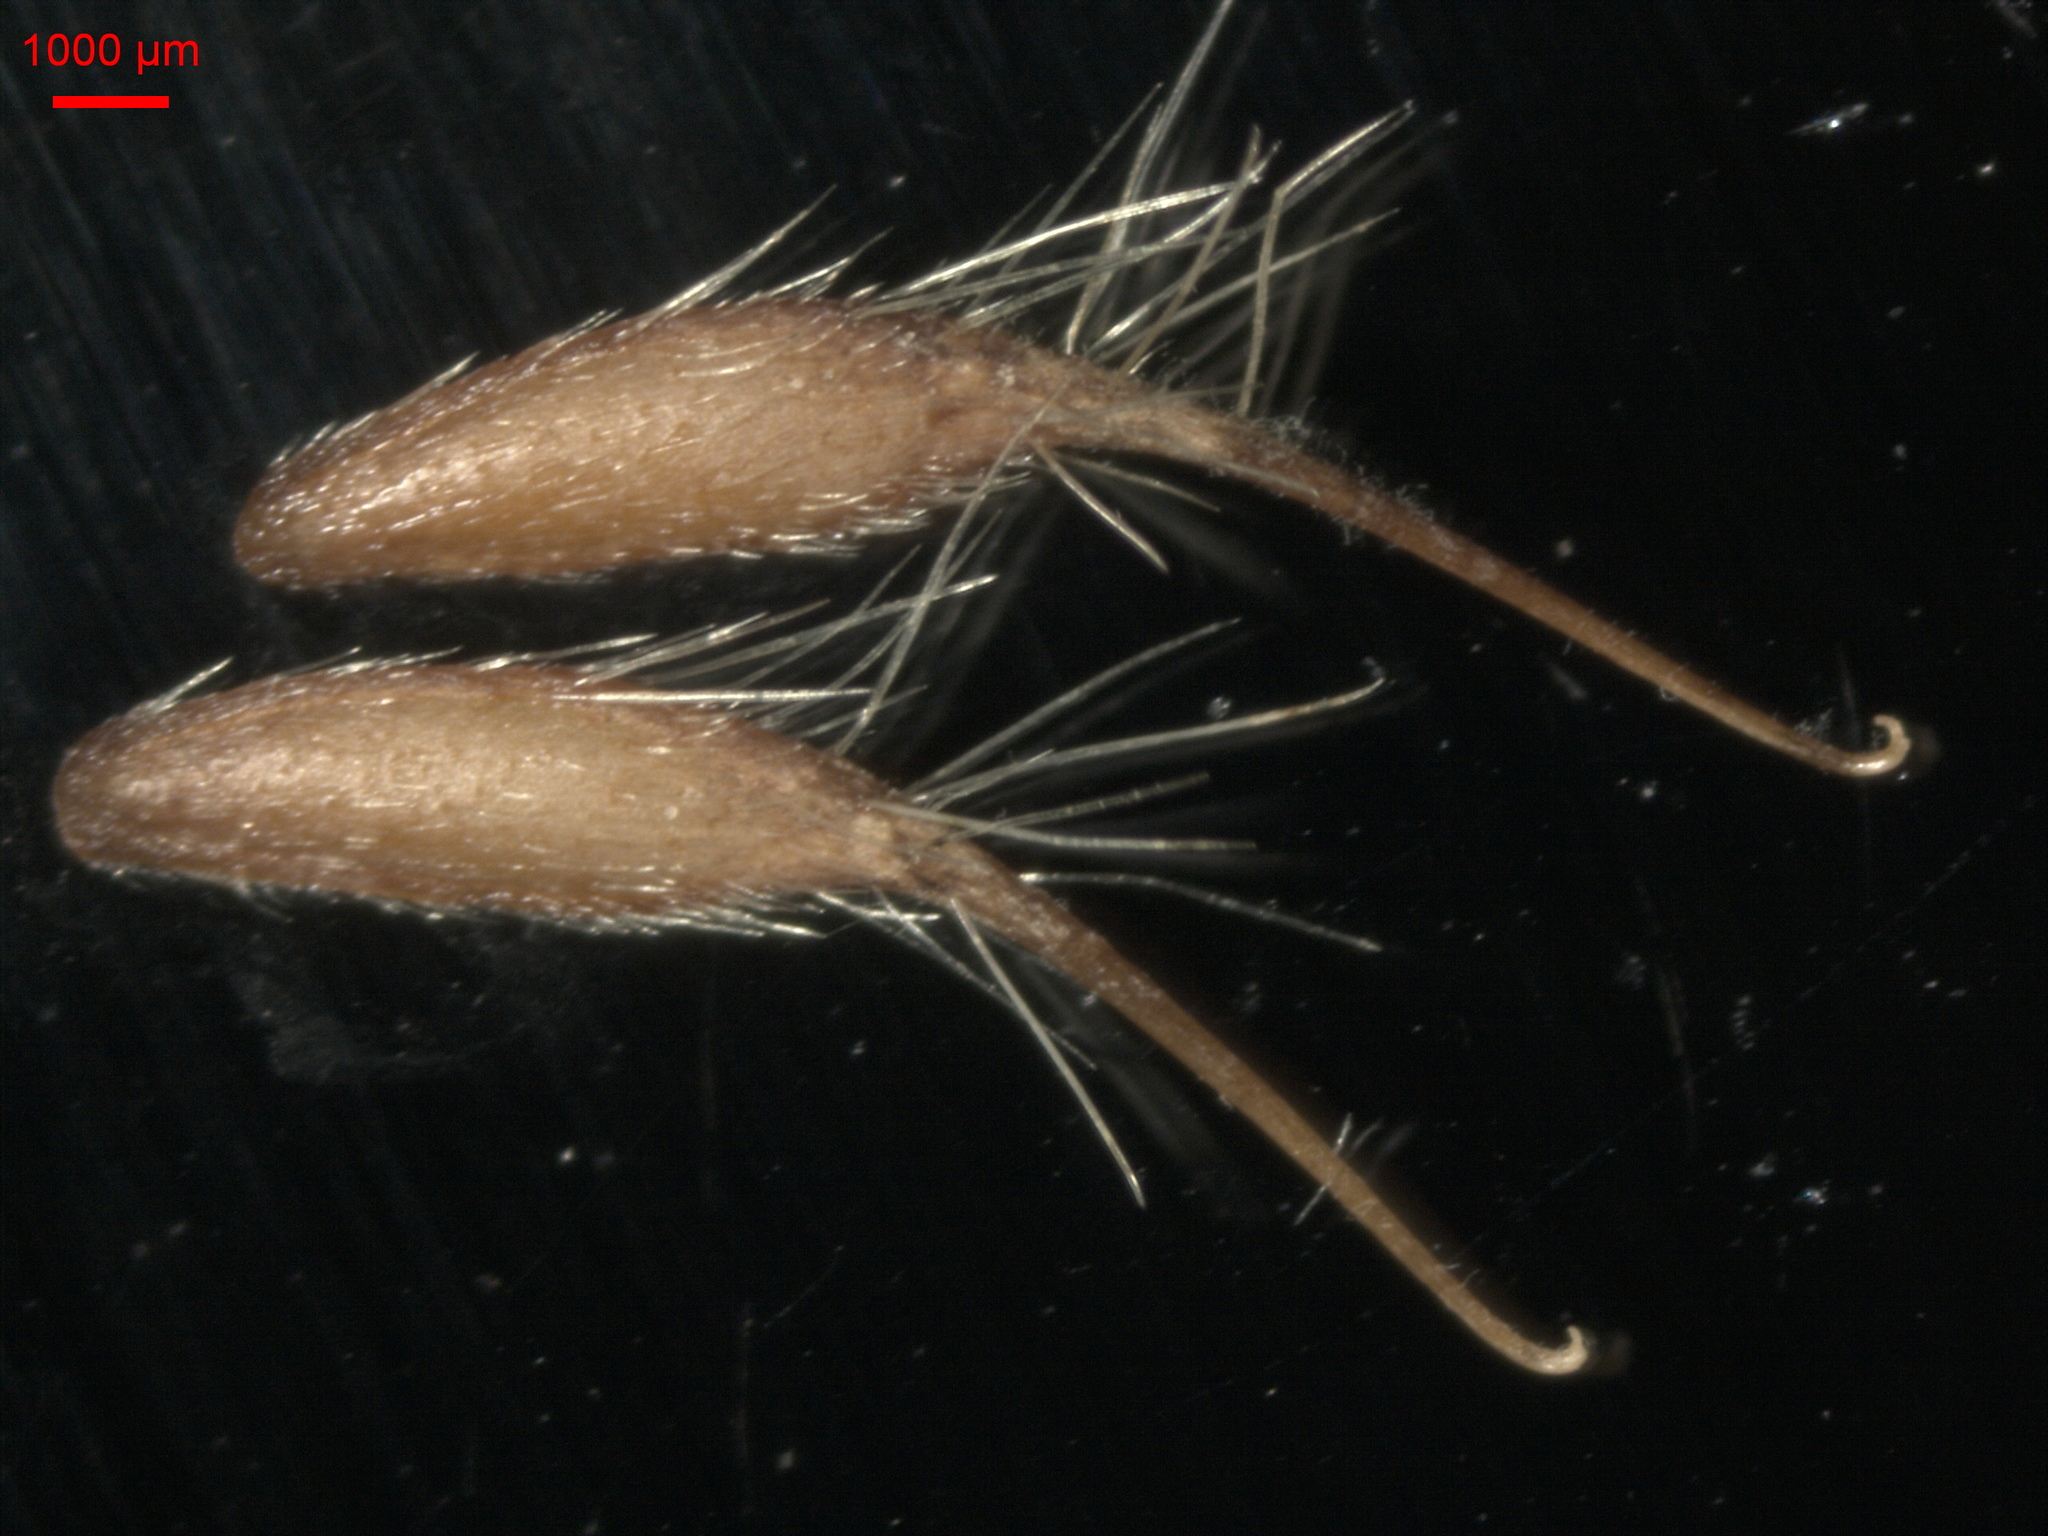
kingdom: Plantae
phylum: Tracheophyta
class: Magnoliopsida
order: Rosales
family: Rosaceae
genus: Geum
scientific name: Geum aleppicum
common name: Yellow avens
